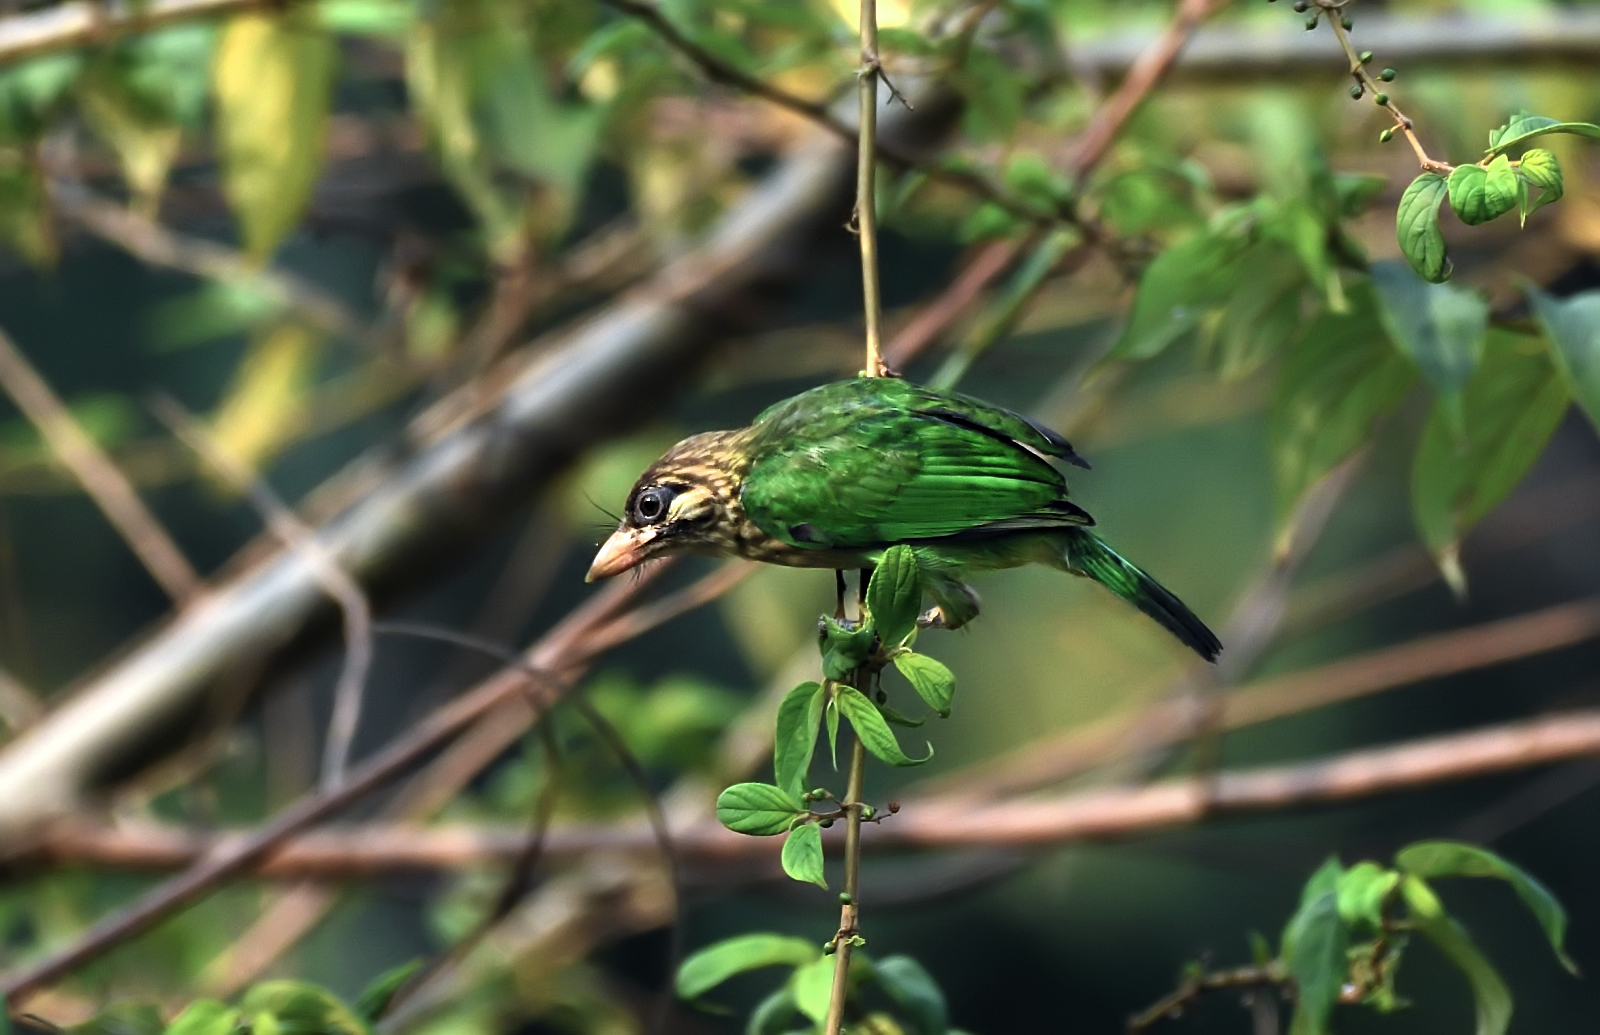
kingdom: Animalia
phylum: Chordata
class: Aves
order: Piciformes
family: Megalaimidae
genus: Psilopogon
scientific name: Psilopogon viridis
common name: White-cheeked barbet
